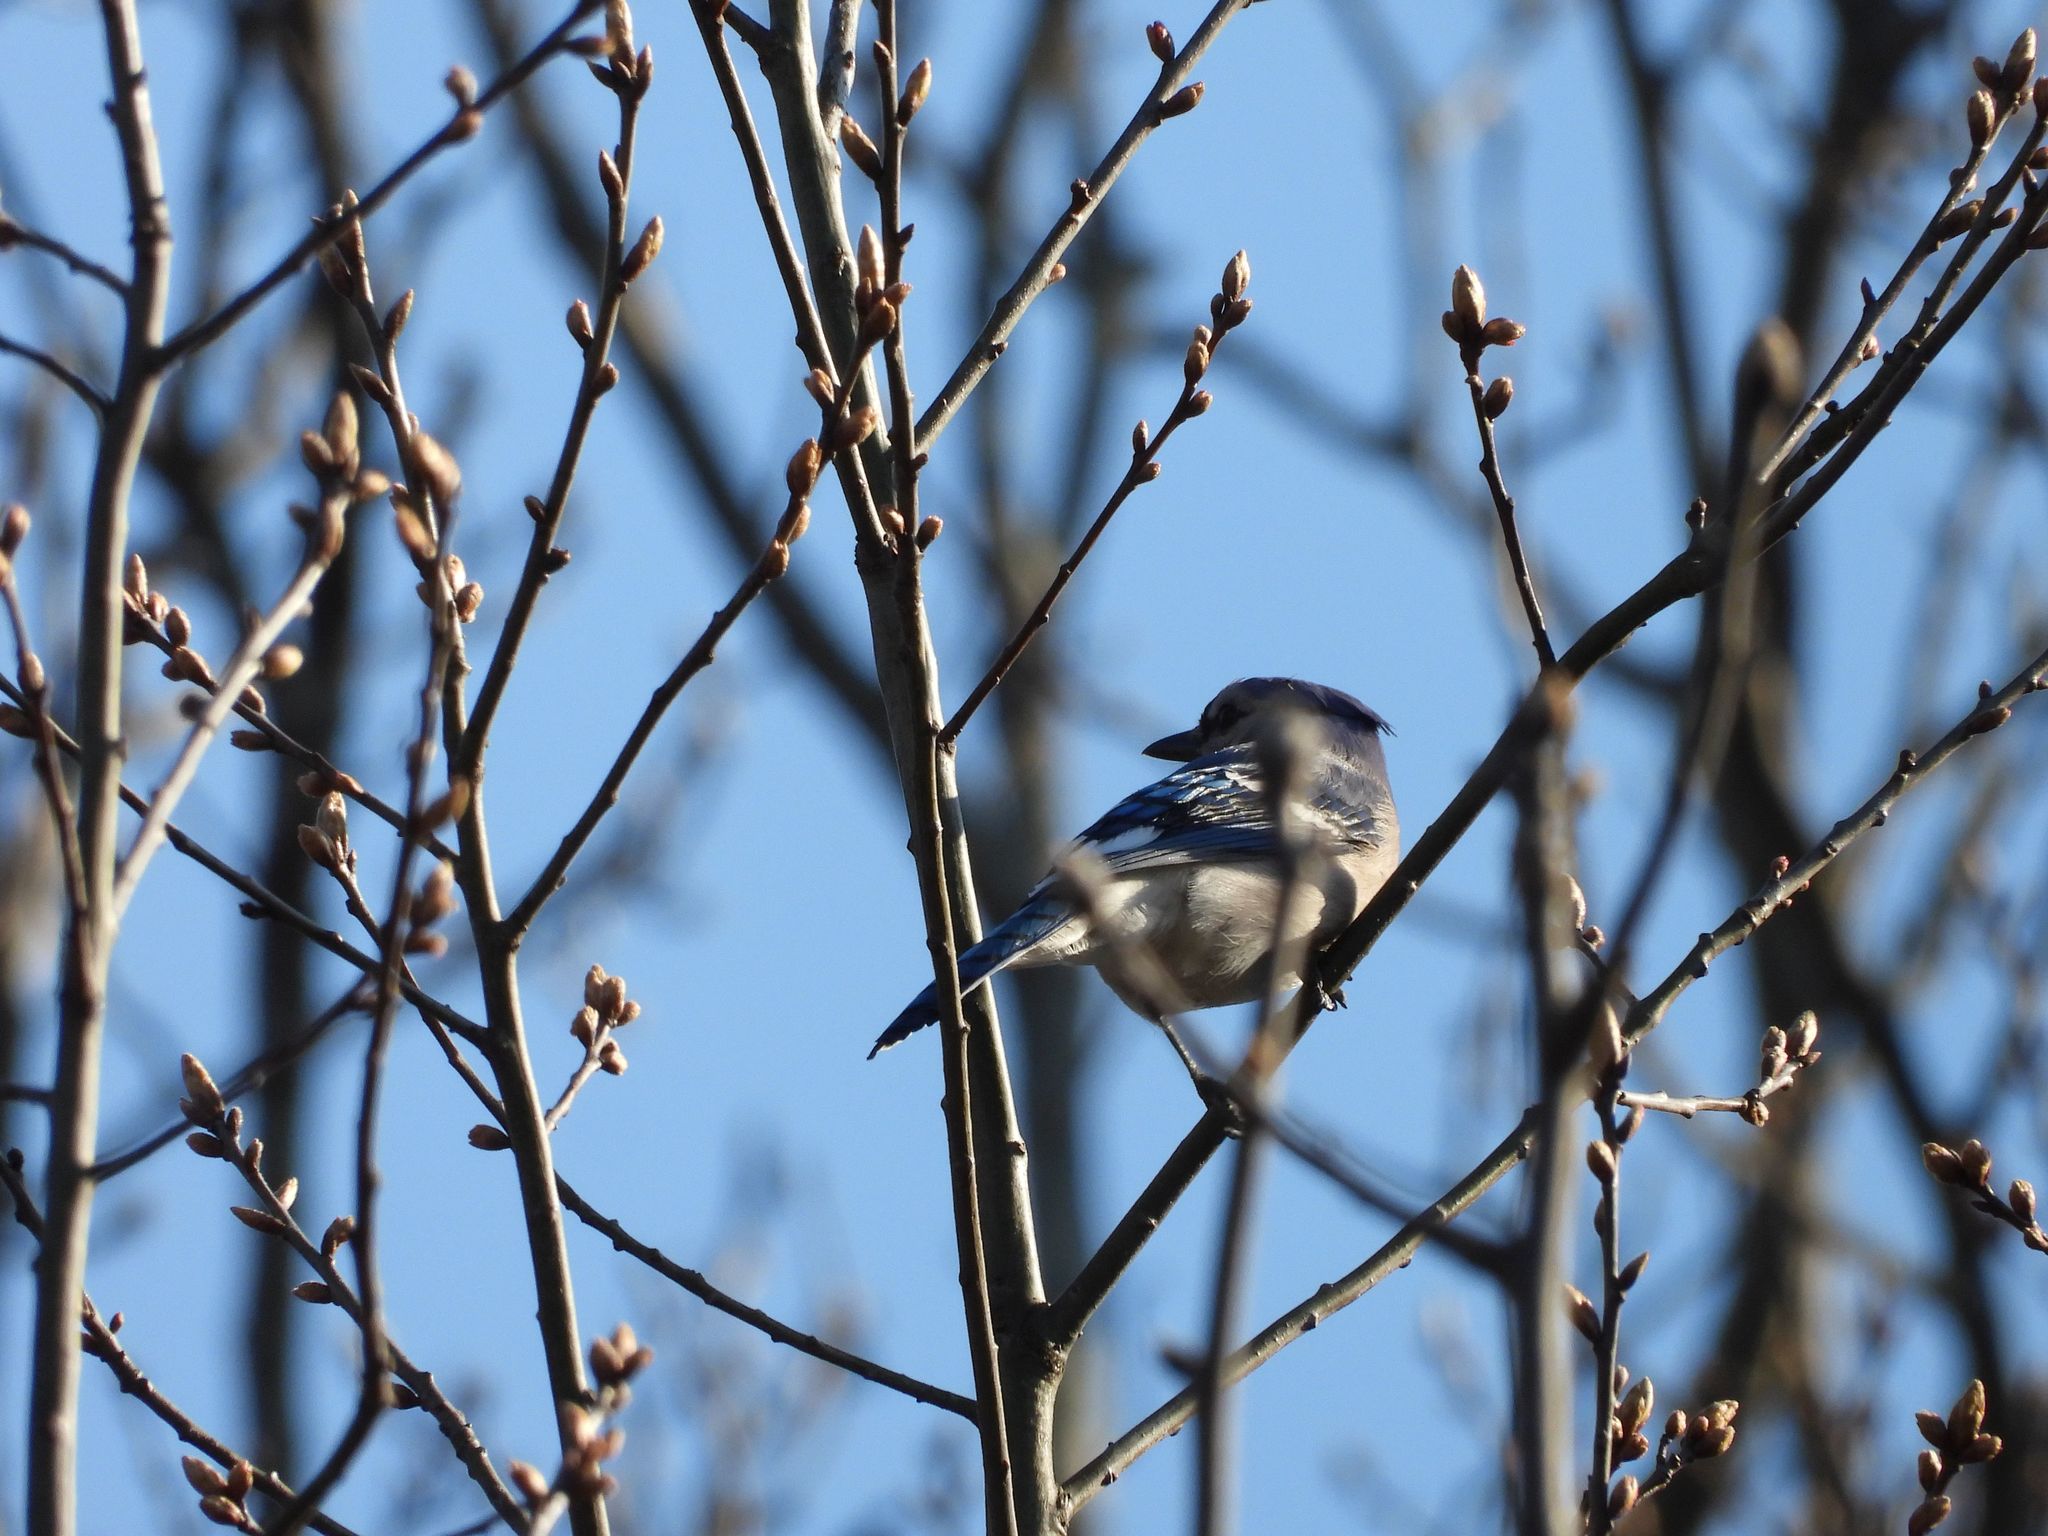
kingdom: Animalia
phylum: Chordata
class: Aves
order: Passeriformes
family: Corvidae
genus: Cyanocitta
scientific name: Cyanocitta cristata
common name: Blue jay
